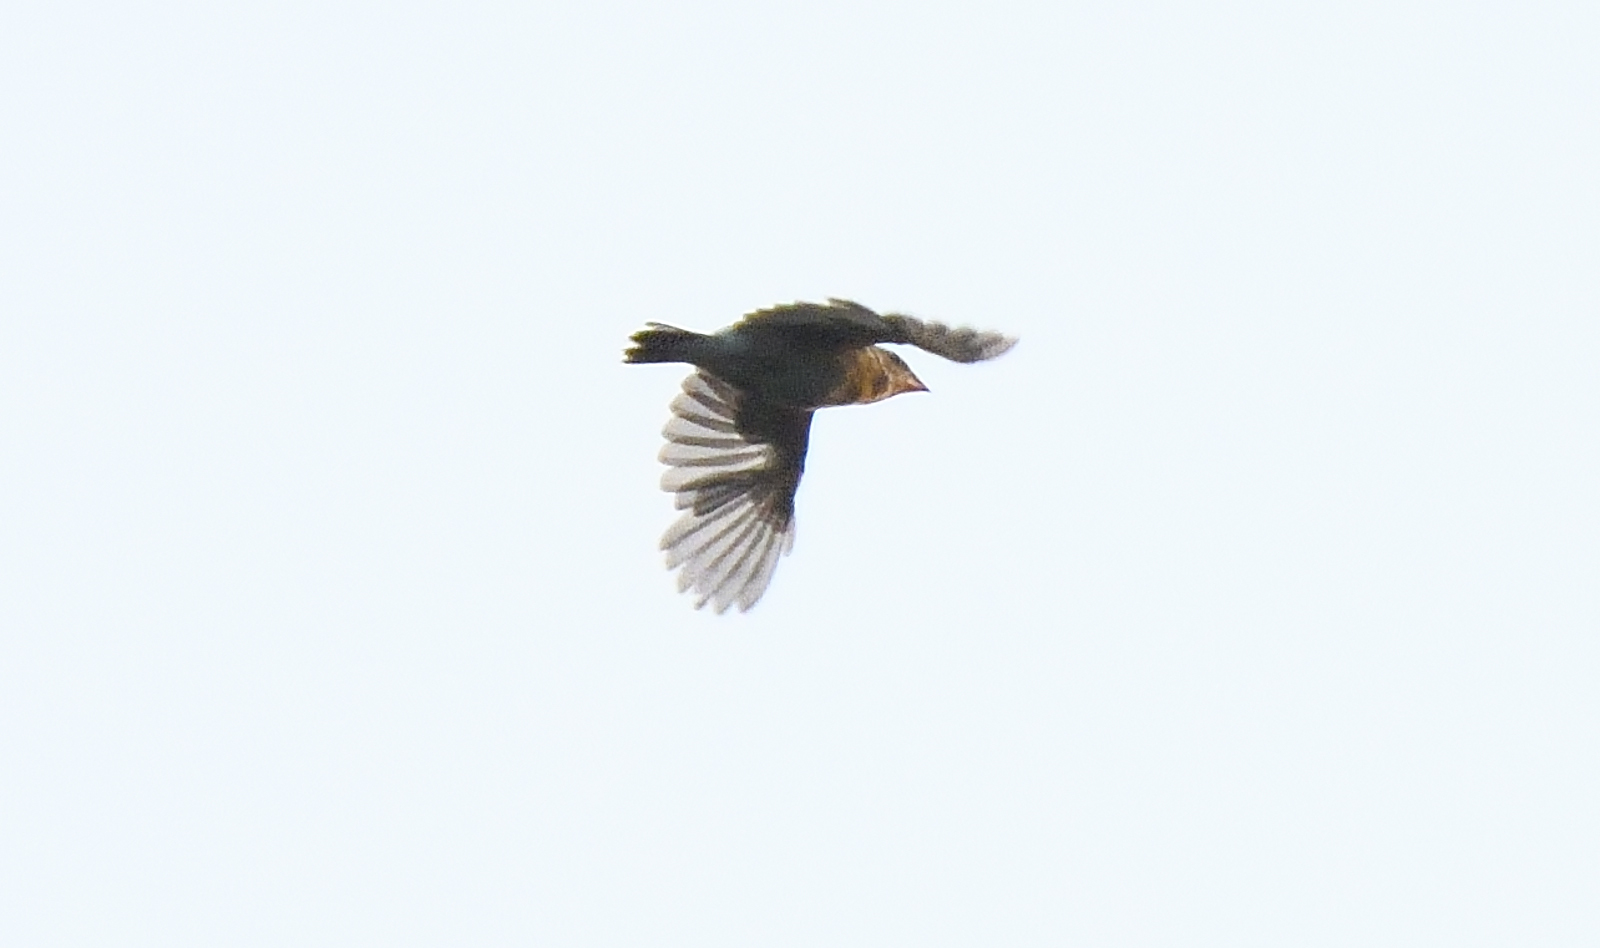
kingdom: Animalia
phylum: Chordata
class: Aves
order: Passeriformes
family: Ploceidae
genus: Ploceus
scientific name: Ploceus philippinus
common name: Baya weaver
